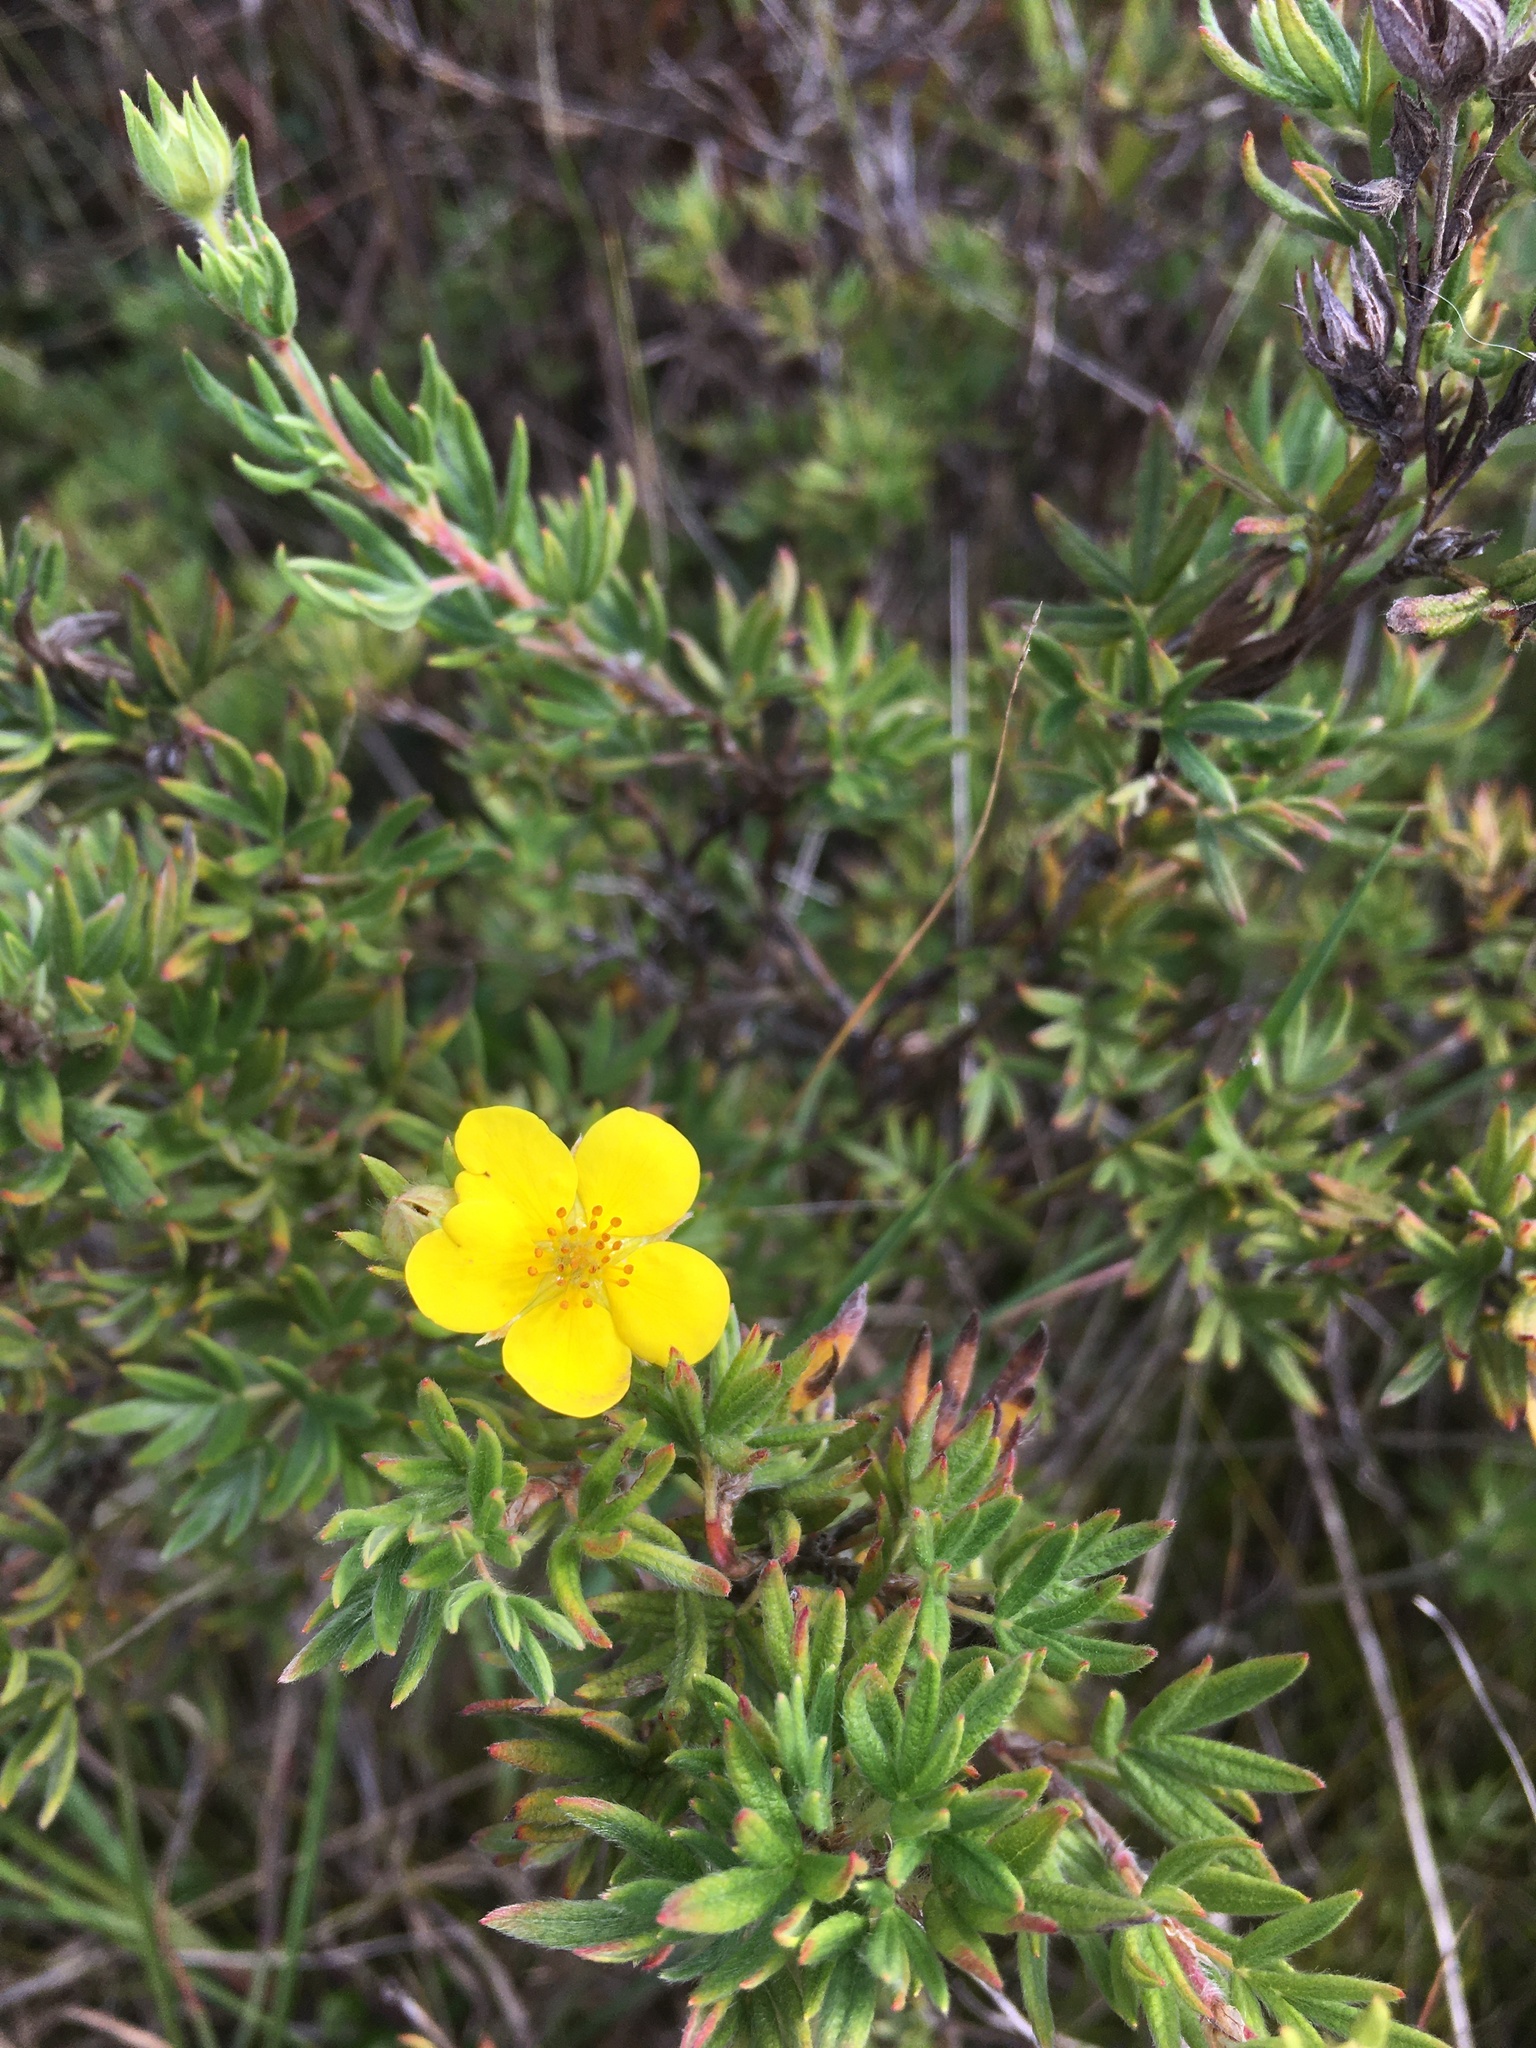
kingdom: Plantae
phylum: Tracheophyta
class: Magnoliopsida
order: Rosales
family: Rosaceae
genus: Dasiphora
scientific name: Dasiphora fruticosa
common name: Shrubby cinquefoil
